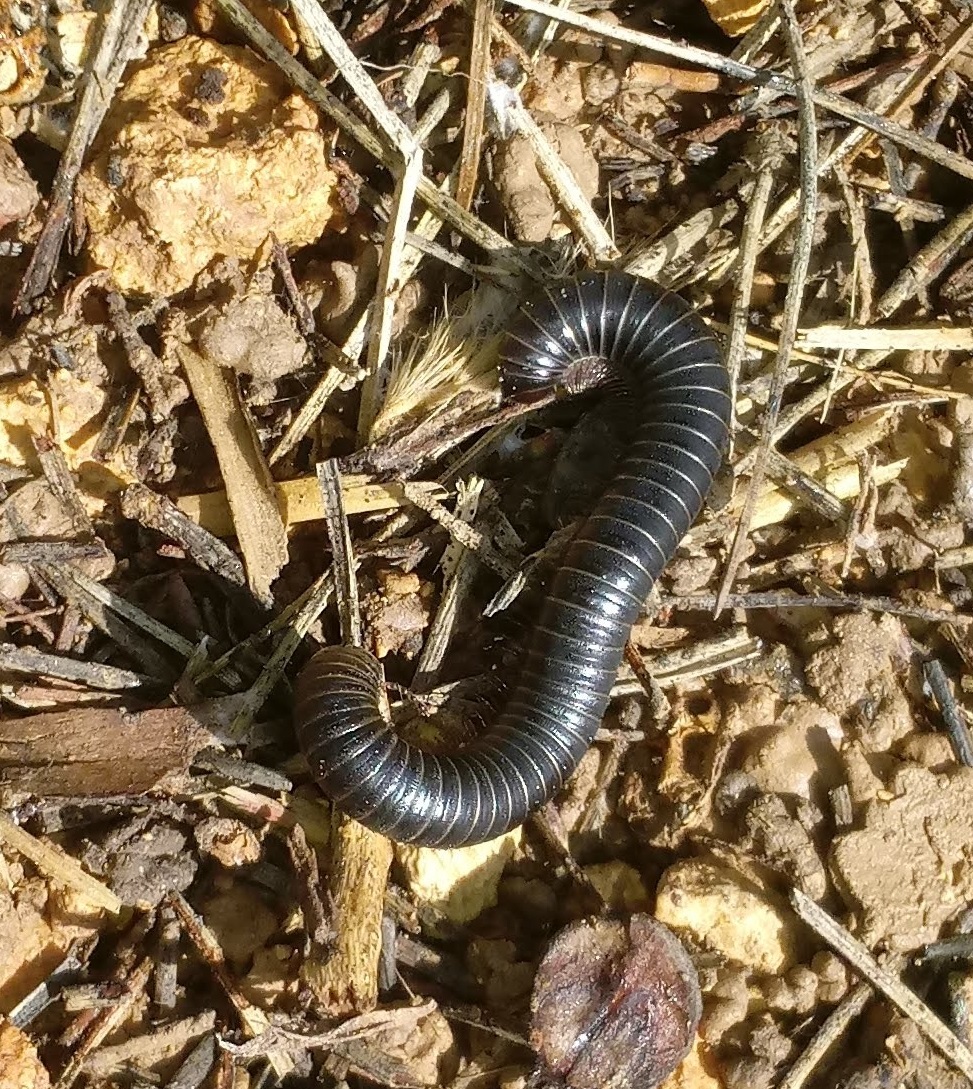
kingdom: Animalia
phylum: Arthropoda
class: Diplopoda
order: Spirostreptida
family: Spirostreptidae
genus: Archispirostreptus
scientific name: Archispirostreptus syriacus
